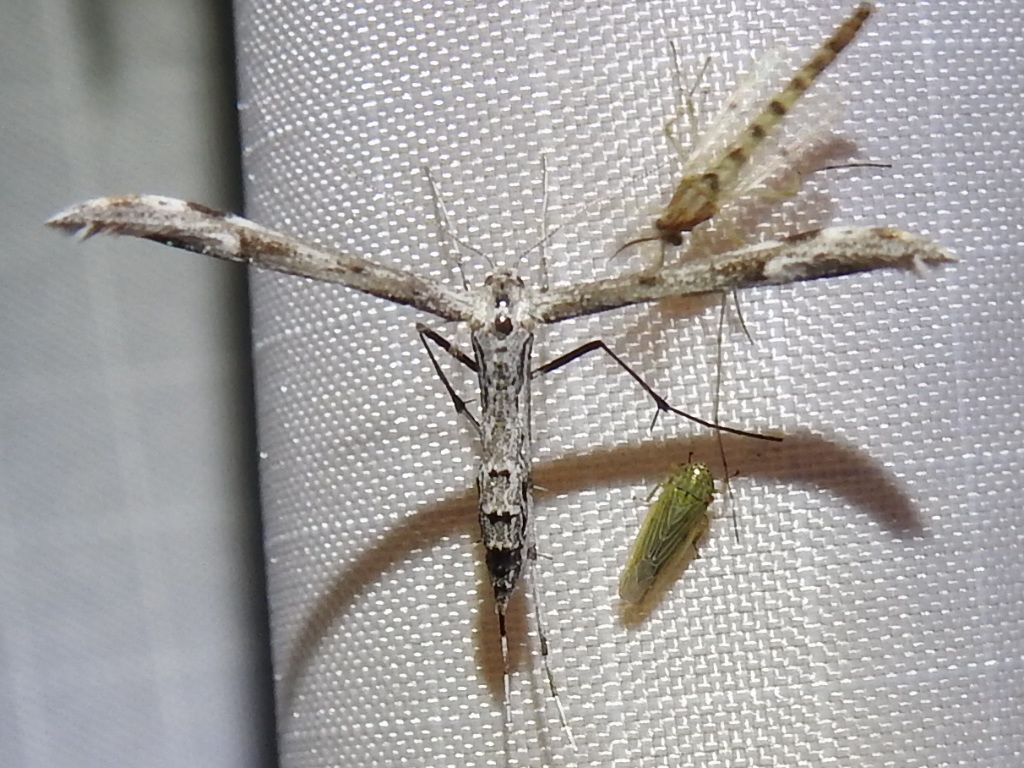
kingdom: Animalia
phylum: Arthropoda
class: Insecta
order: Lepidoptera
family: Pterophoridae
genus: Hellinsia
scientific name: Hellinsia inquinatus
